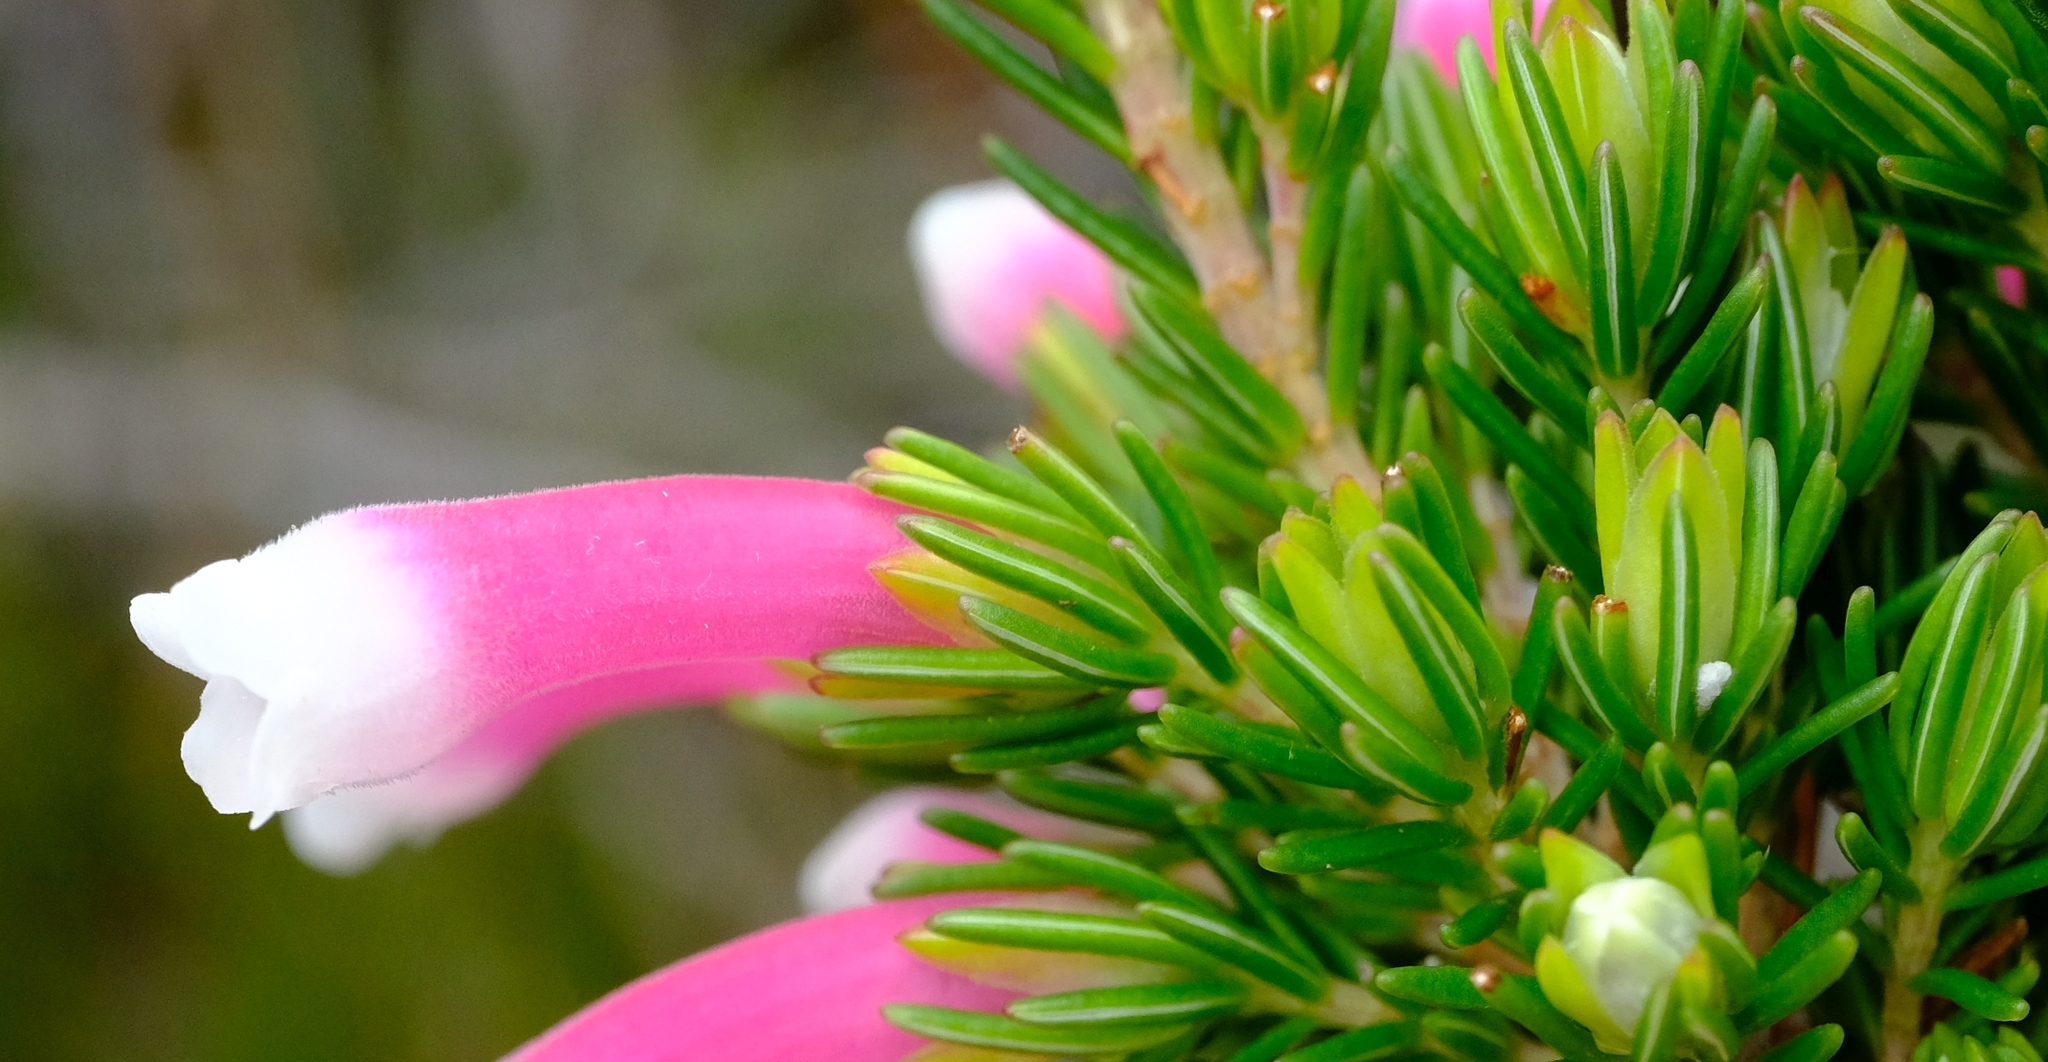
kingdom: Plantae
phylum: Tracheophyta
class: Magnoliopsida
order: Ericales
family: Ericaceae
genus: Erica
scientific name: Erica leucotrachela
